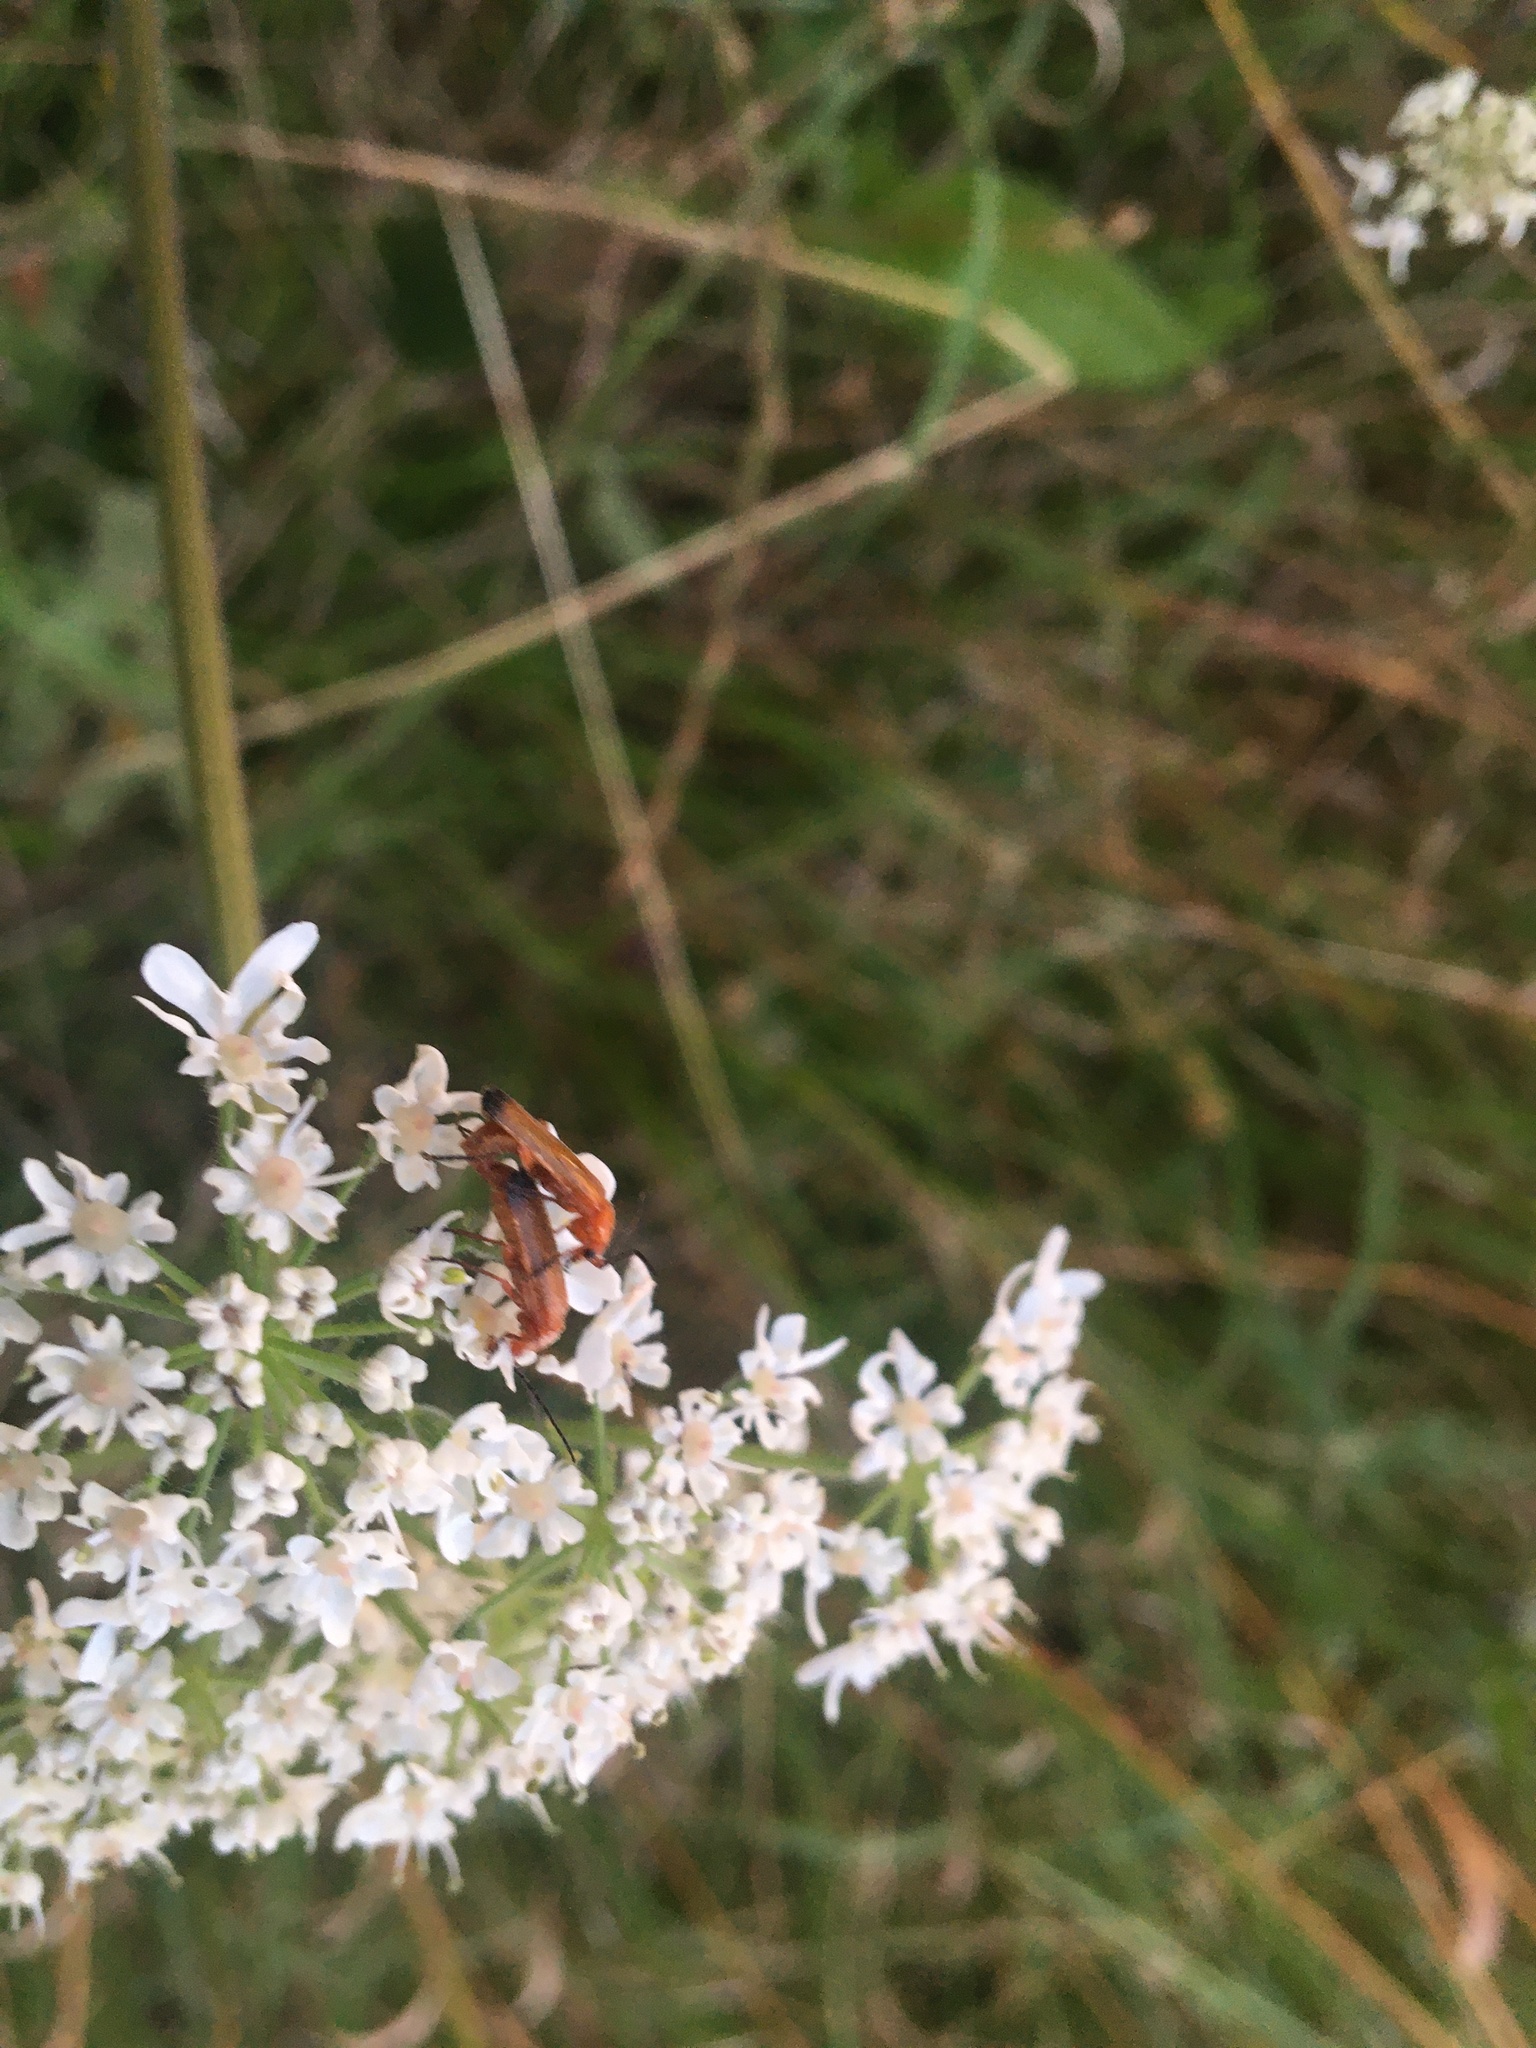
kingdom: Animalia
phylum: Arthropoda
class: Insecta
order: Coleoptera
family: Cantharidae
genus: Rhagonycha
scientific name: Rhagonycha fulva
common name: Common red soldier beetle
